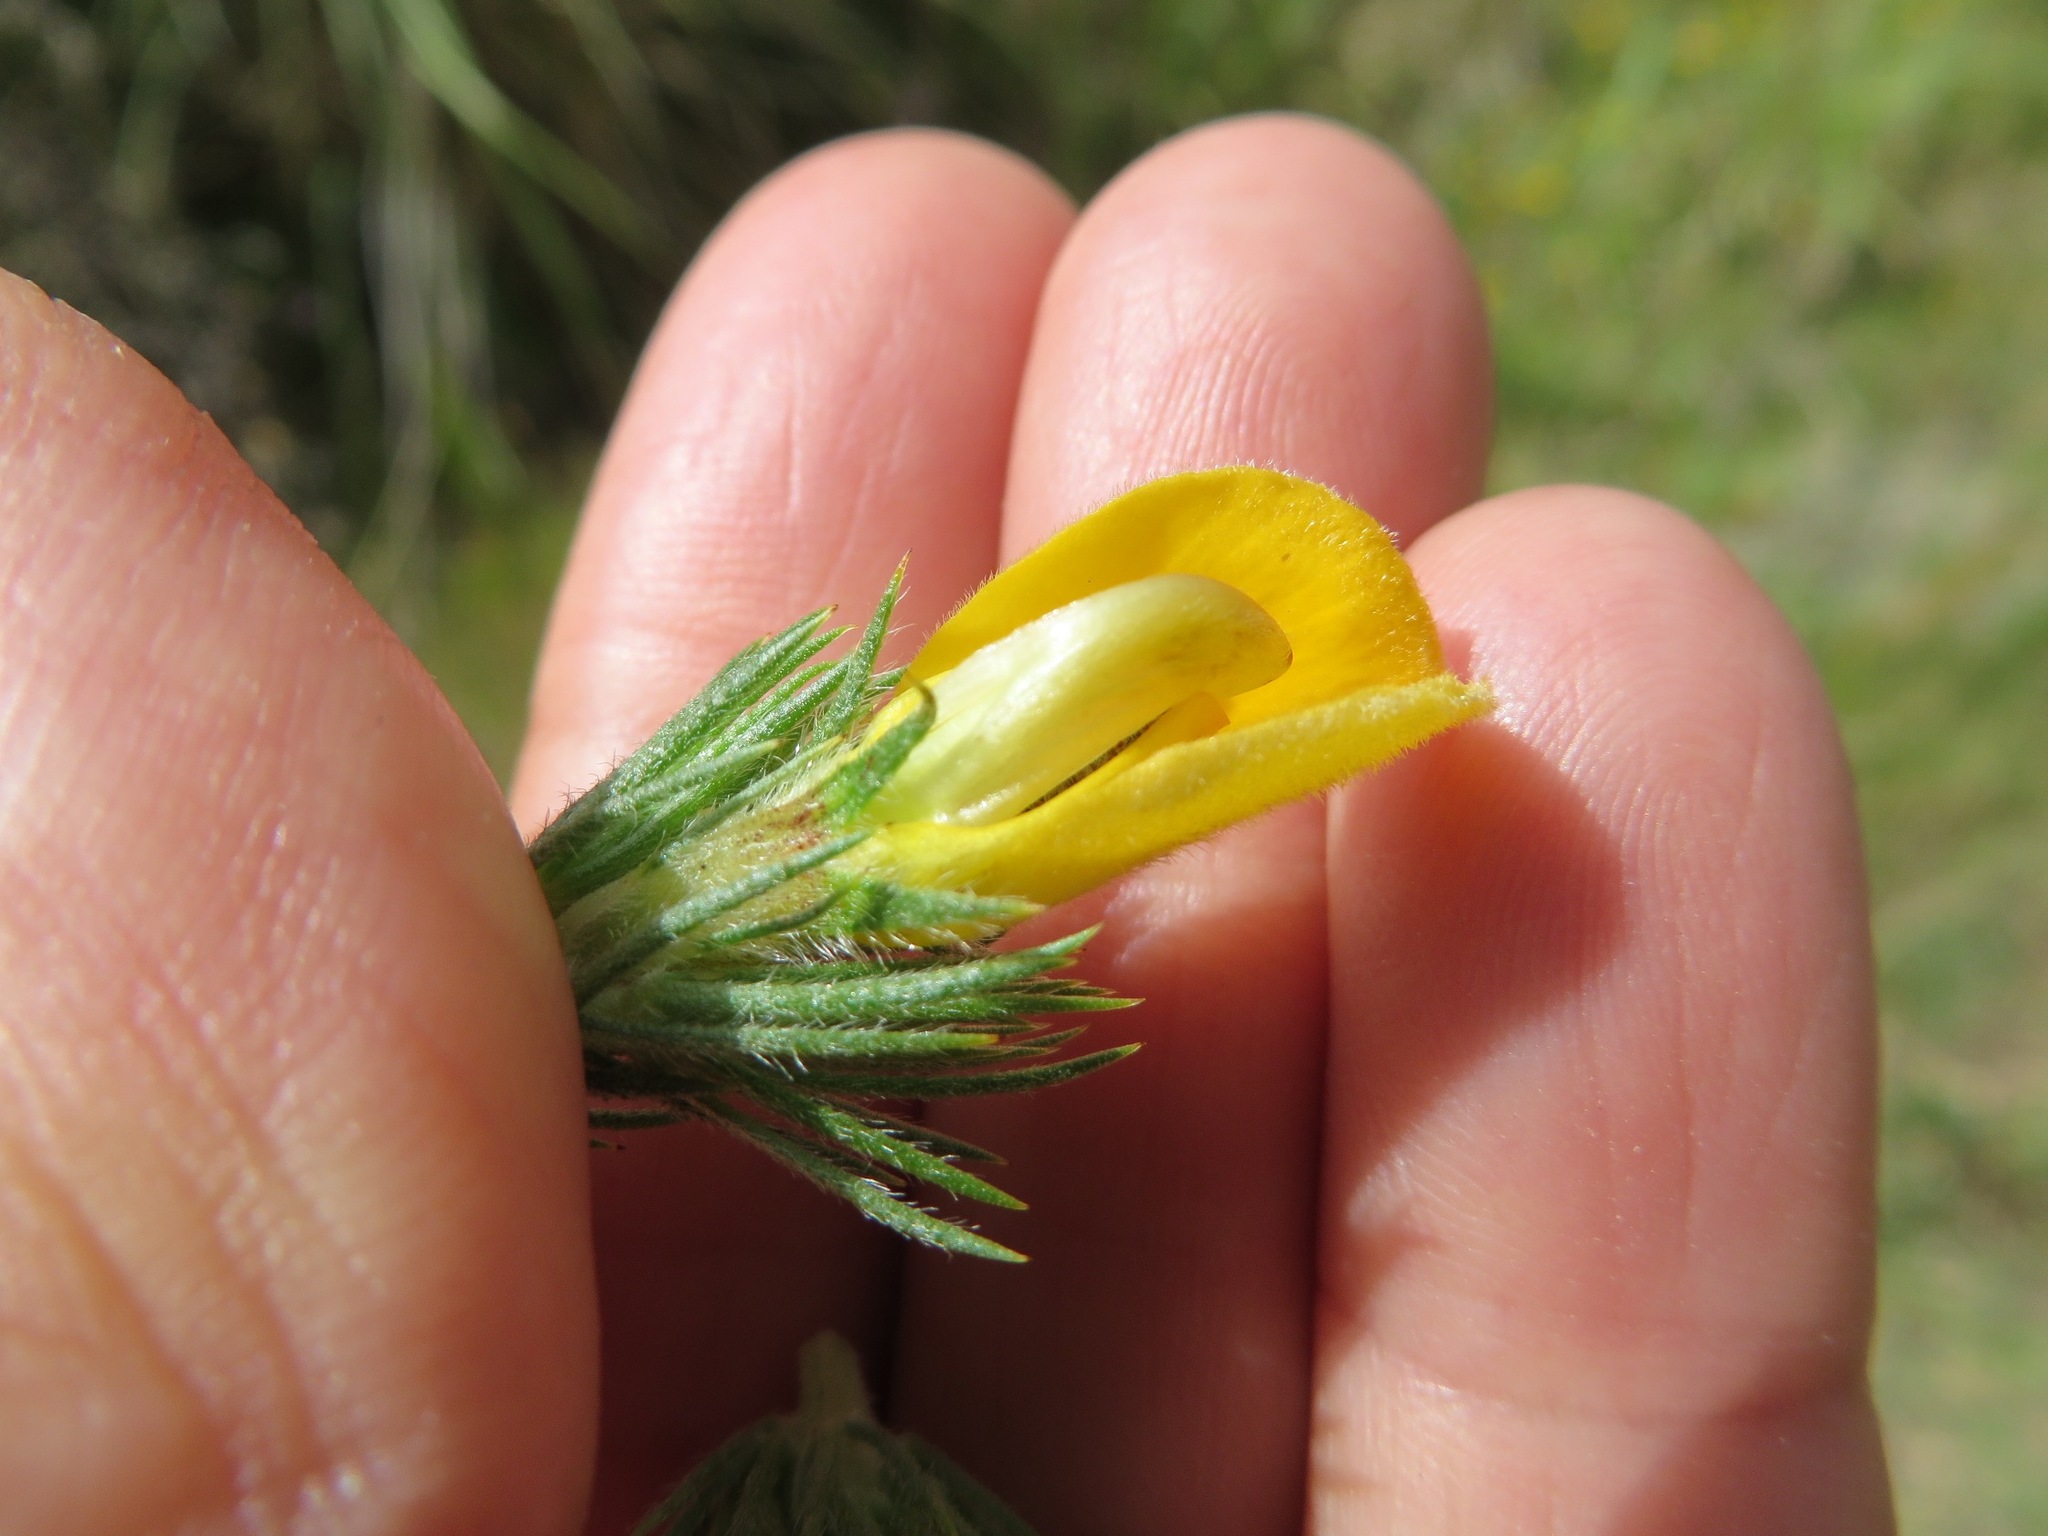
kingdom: Plantae
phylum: Tracheophyta
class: Magnoliopsida
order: Fabales
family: Fabaceae
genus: Aspalathus
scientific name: Aspalathus neglecta
